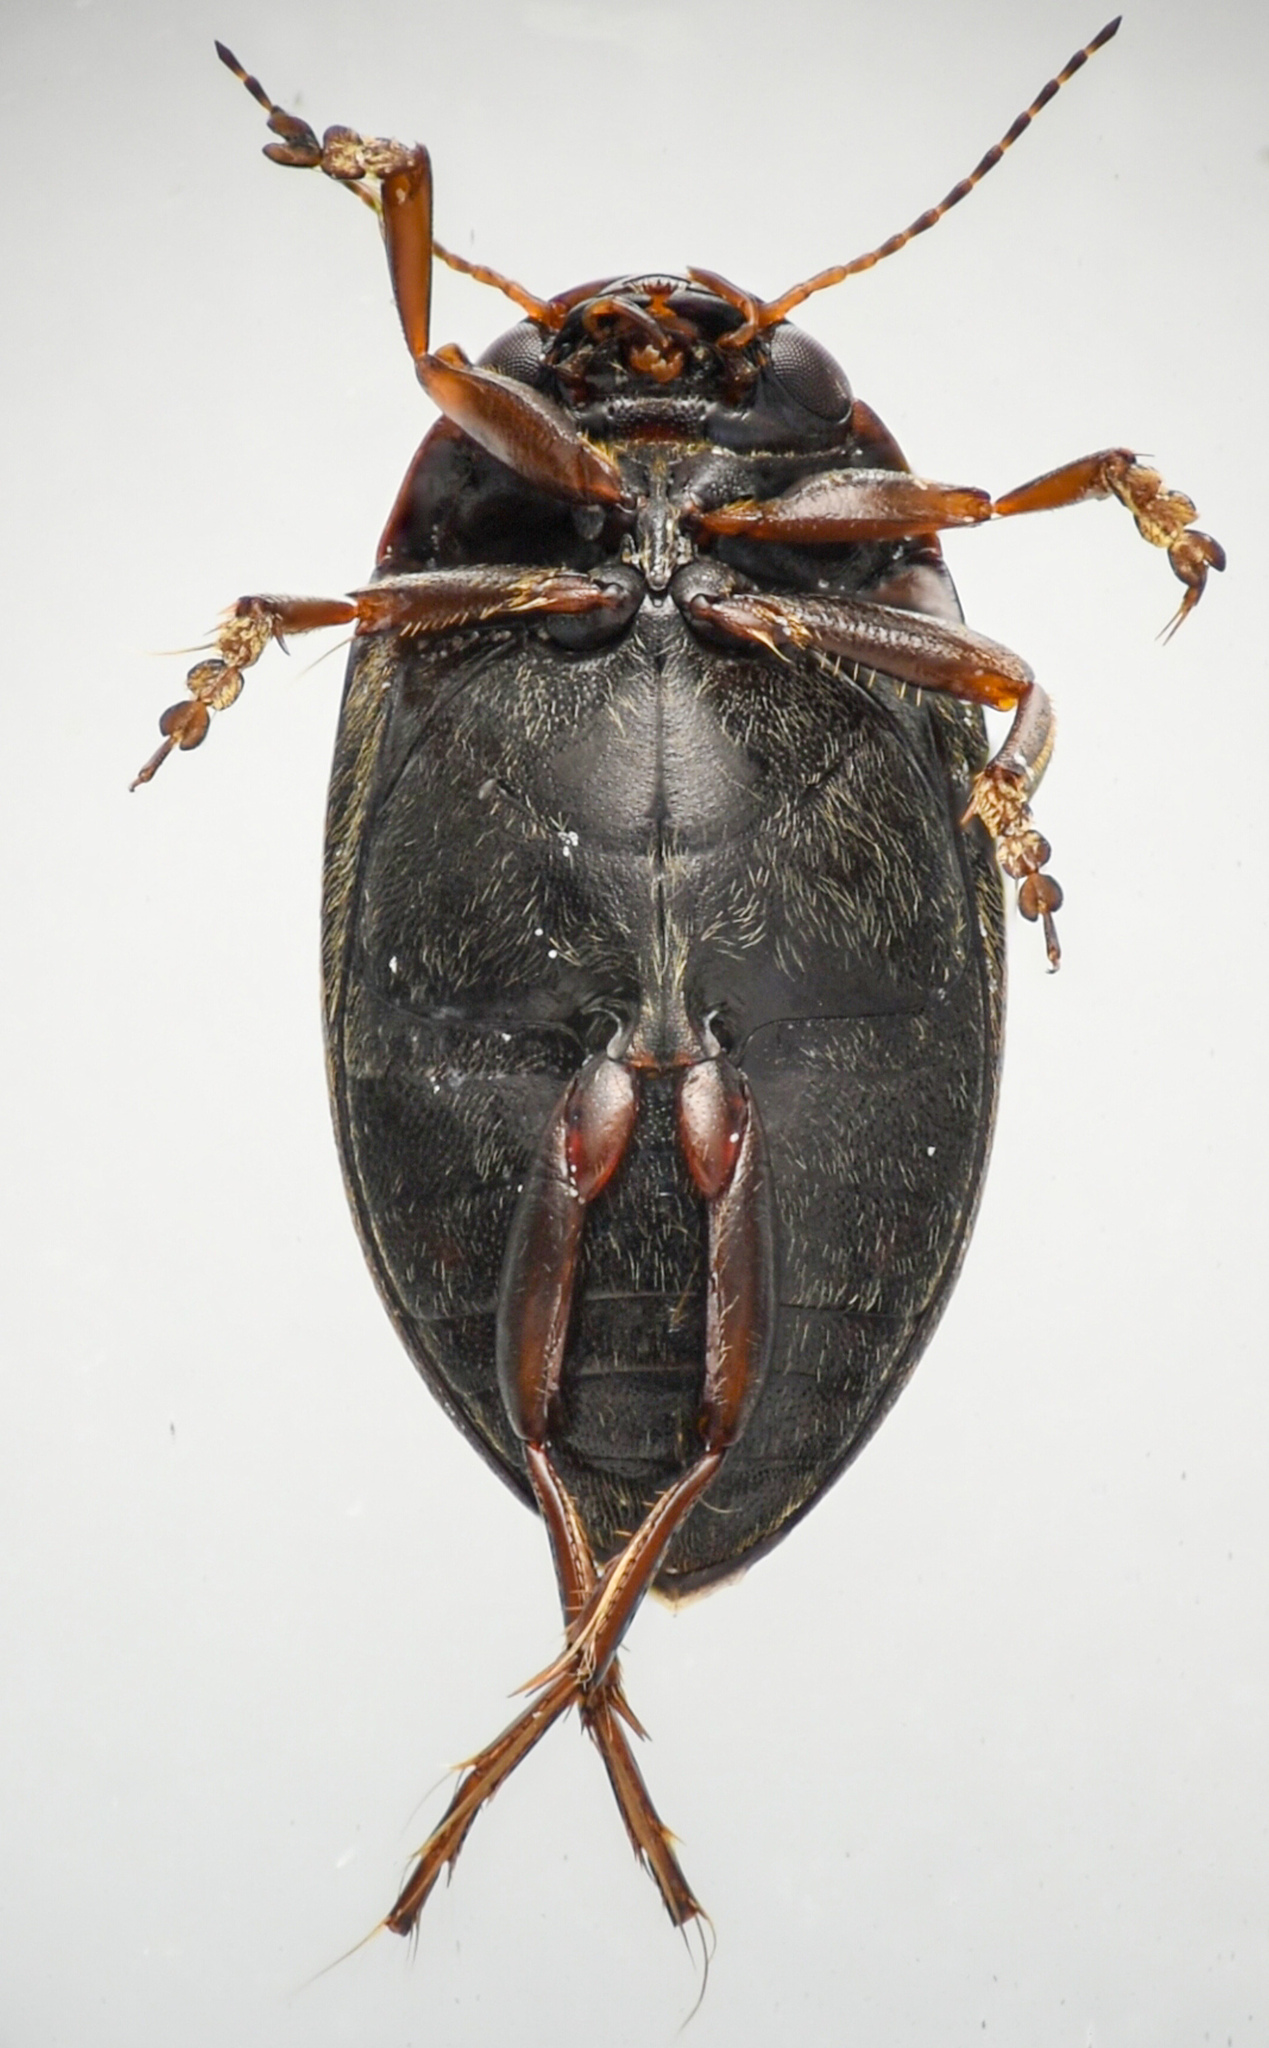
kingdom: Animalia
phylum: Arthropoda
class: Insecta
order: Coleoptera
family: Dytiscidae
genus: Hydroporus
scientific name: Hydroporus
